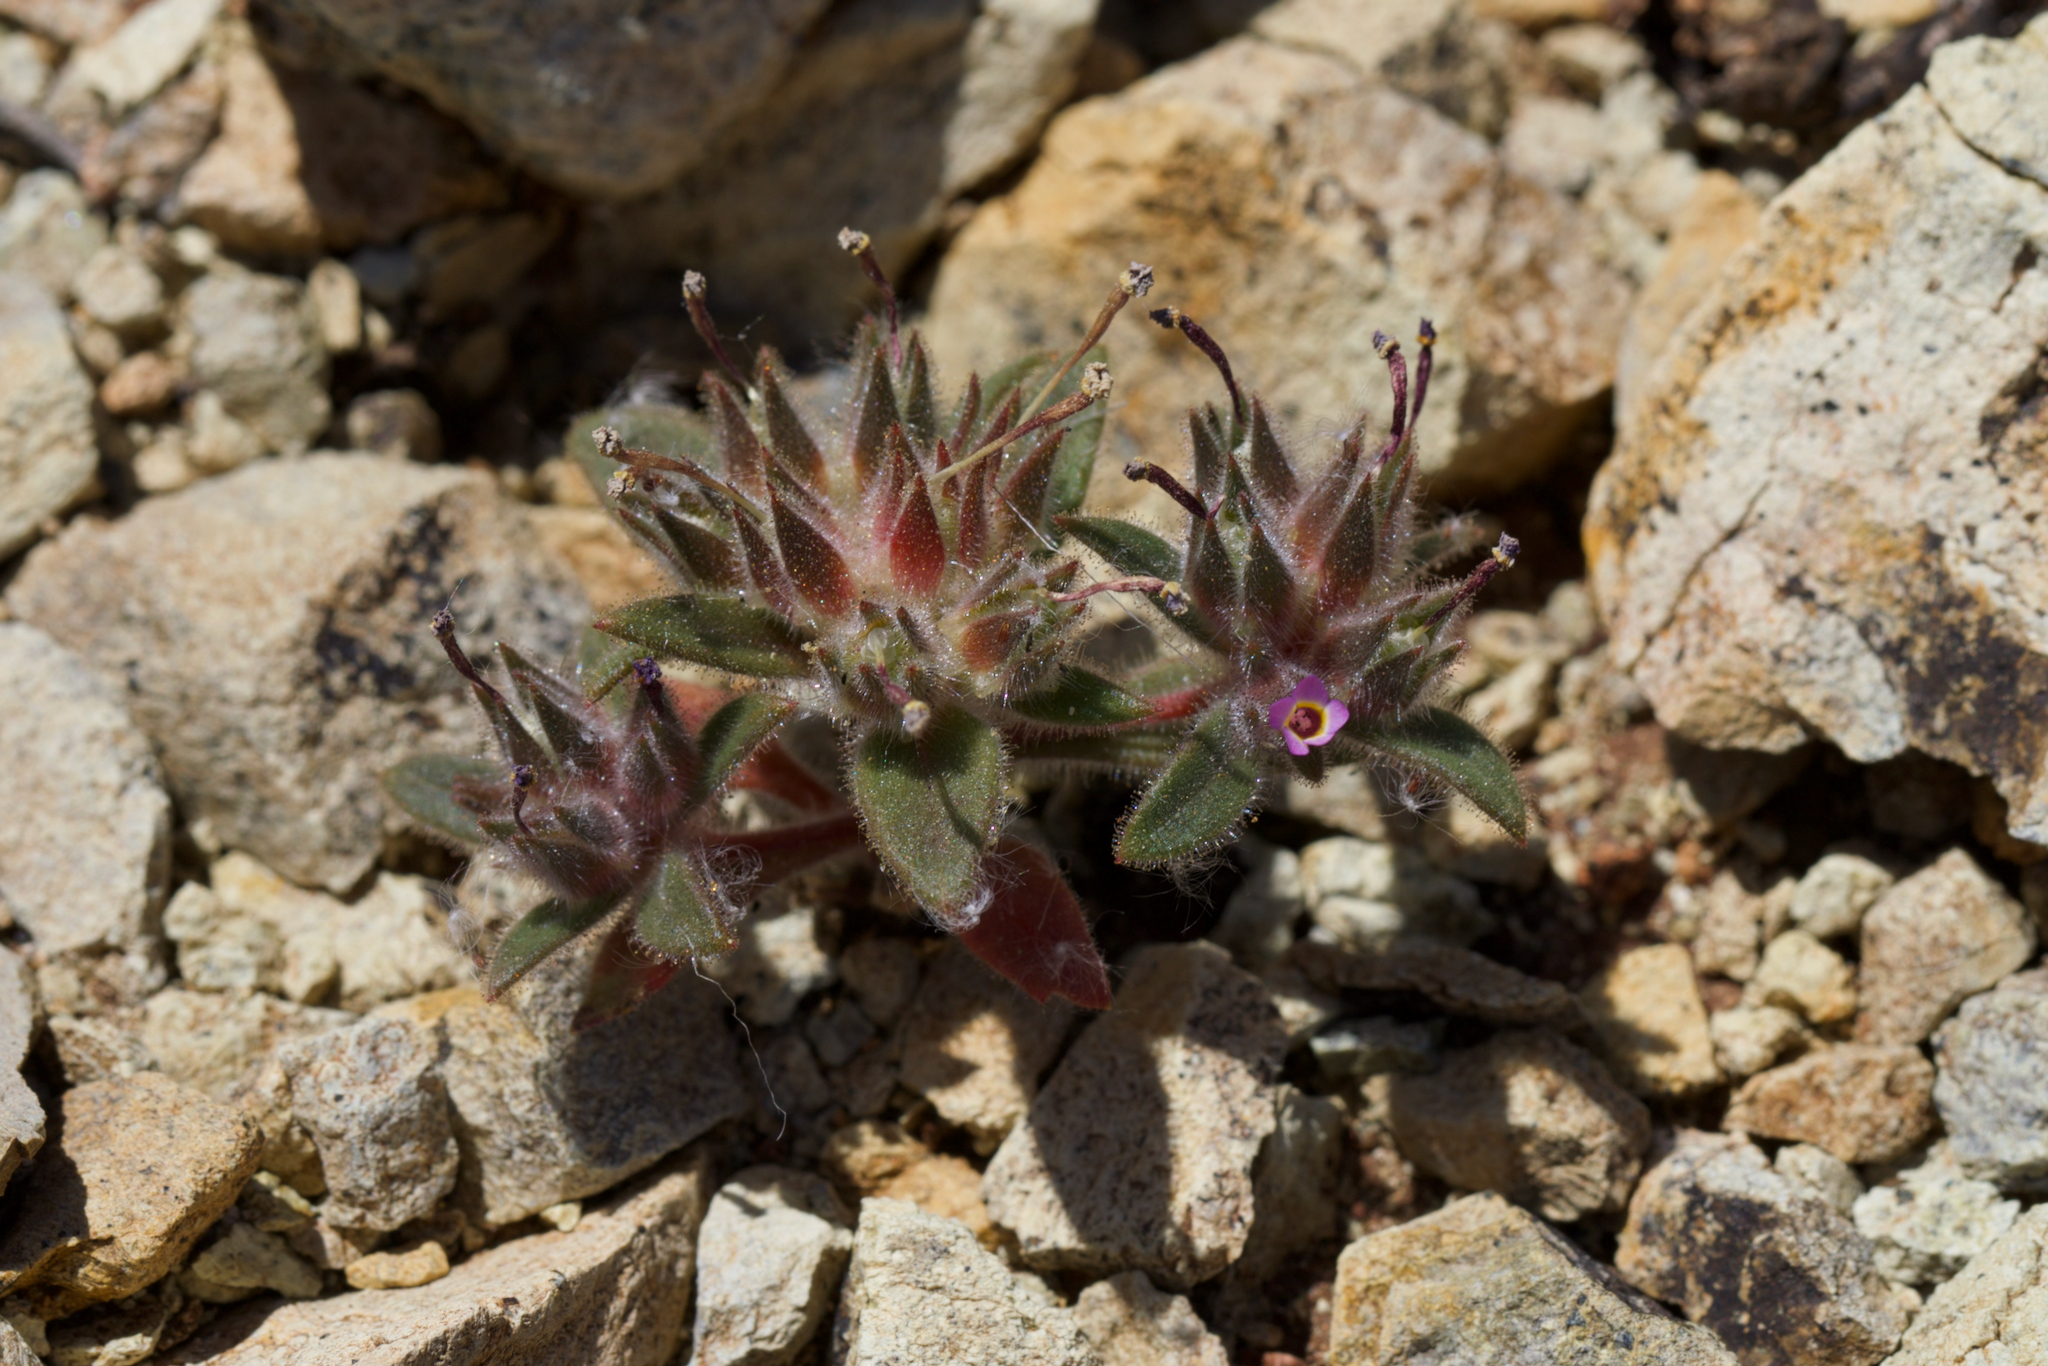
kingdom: Plantae
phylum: Tracheophyta
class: Magnoliopsida
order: Ericales
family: Polemoniaceae
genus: Collomia
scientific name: Collomia diversifolia
